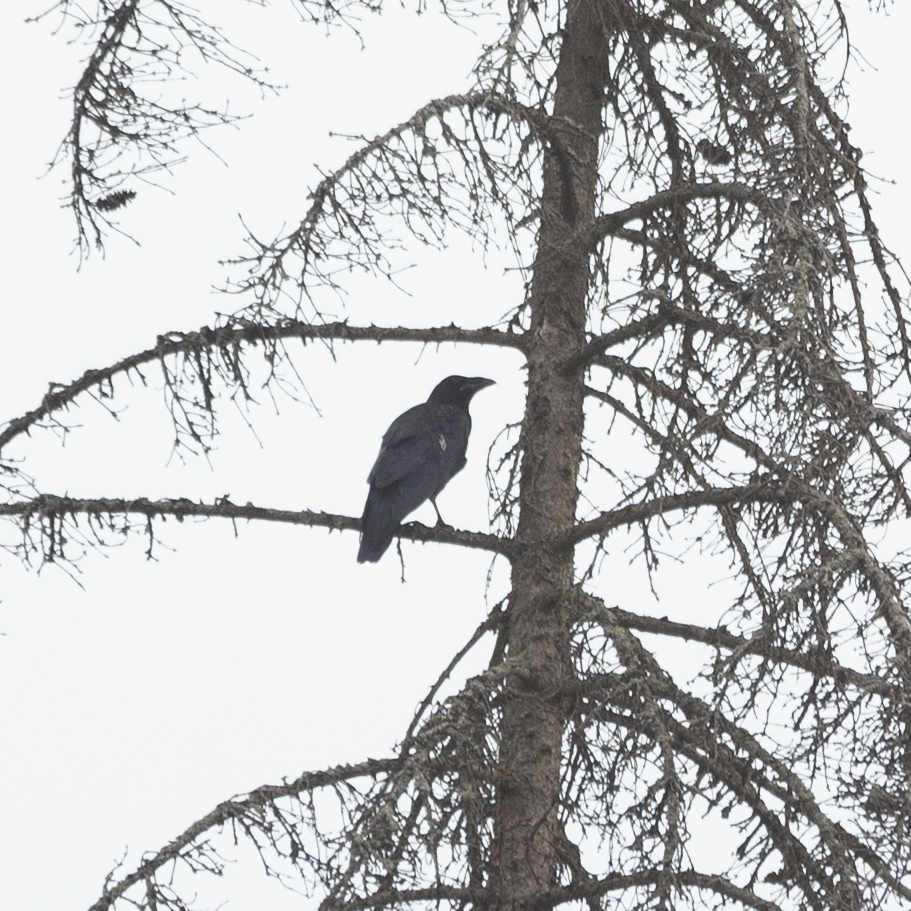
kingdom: Animalia
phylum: Chordata
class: Aves
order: Passeriformes
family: Corvidae
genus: Corvus
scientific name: Corvus corax
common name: Common raven
